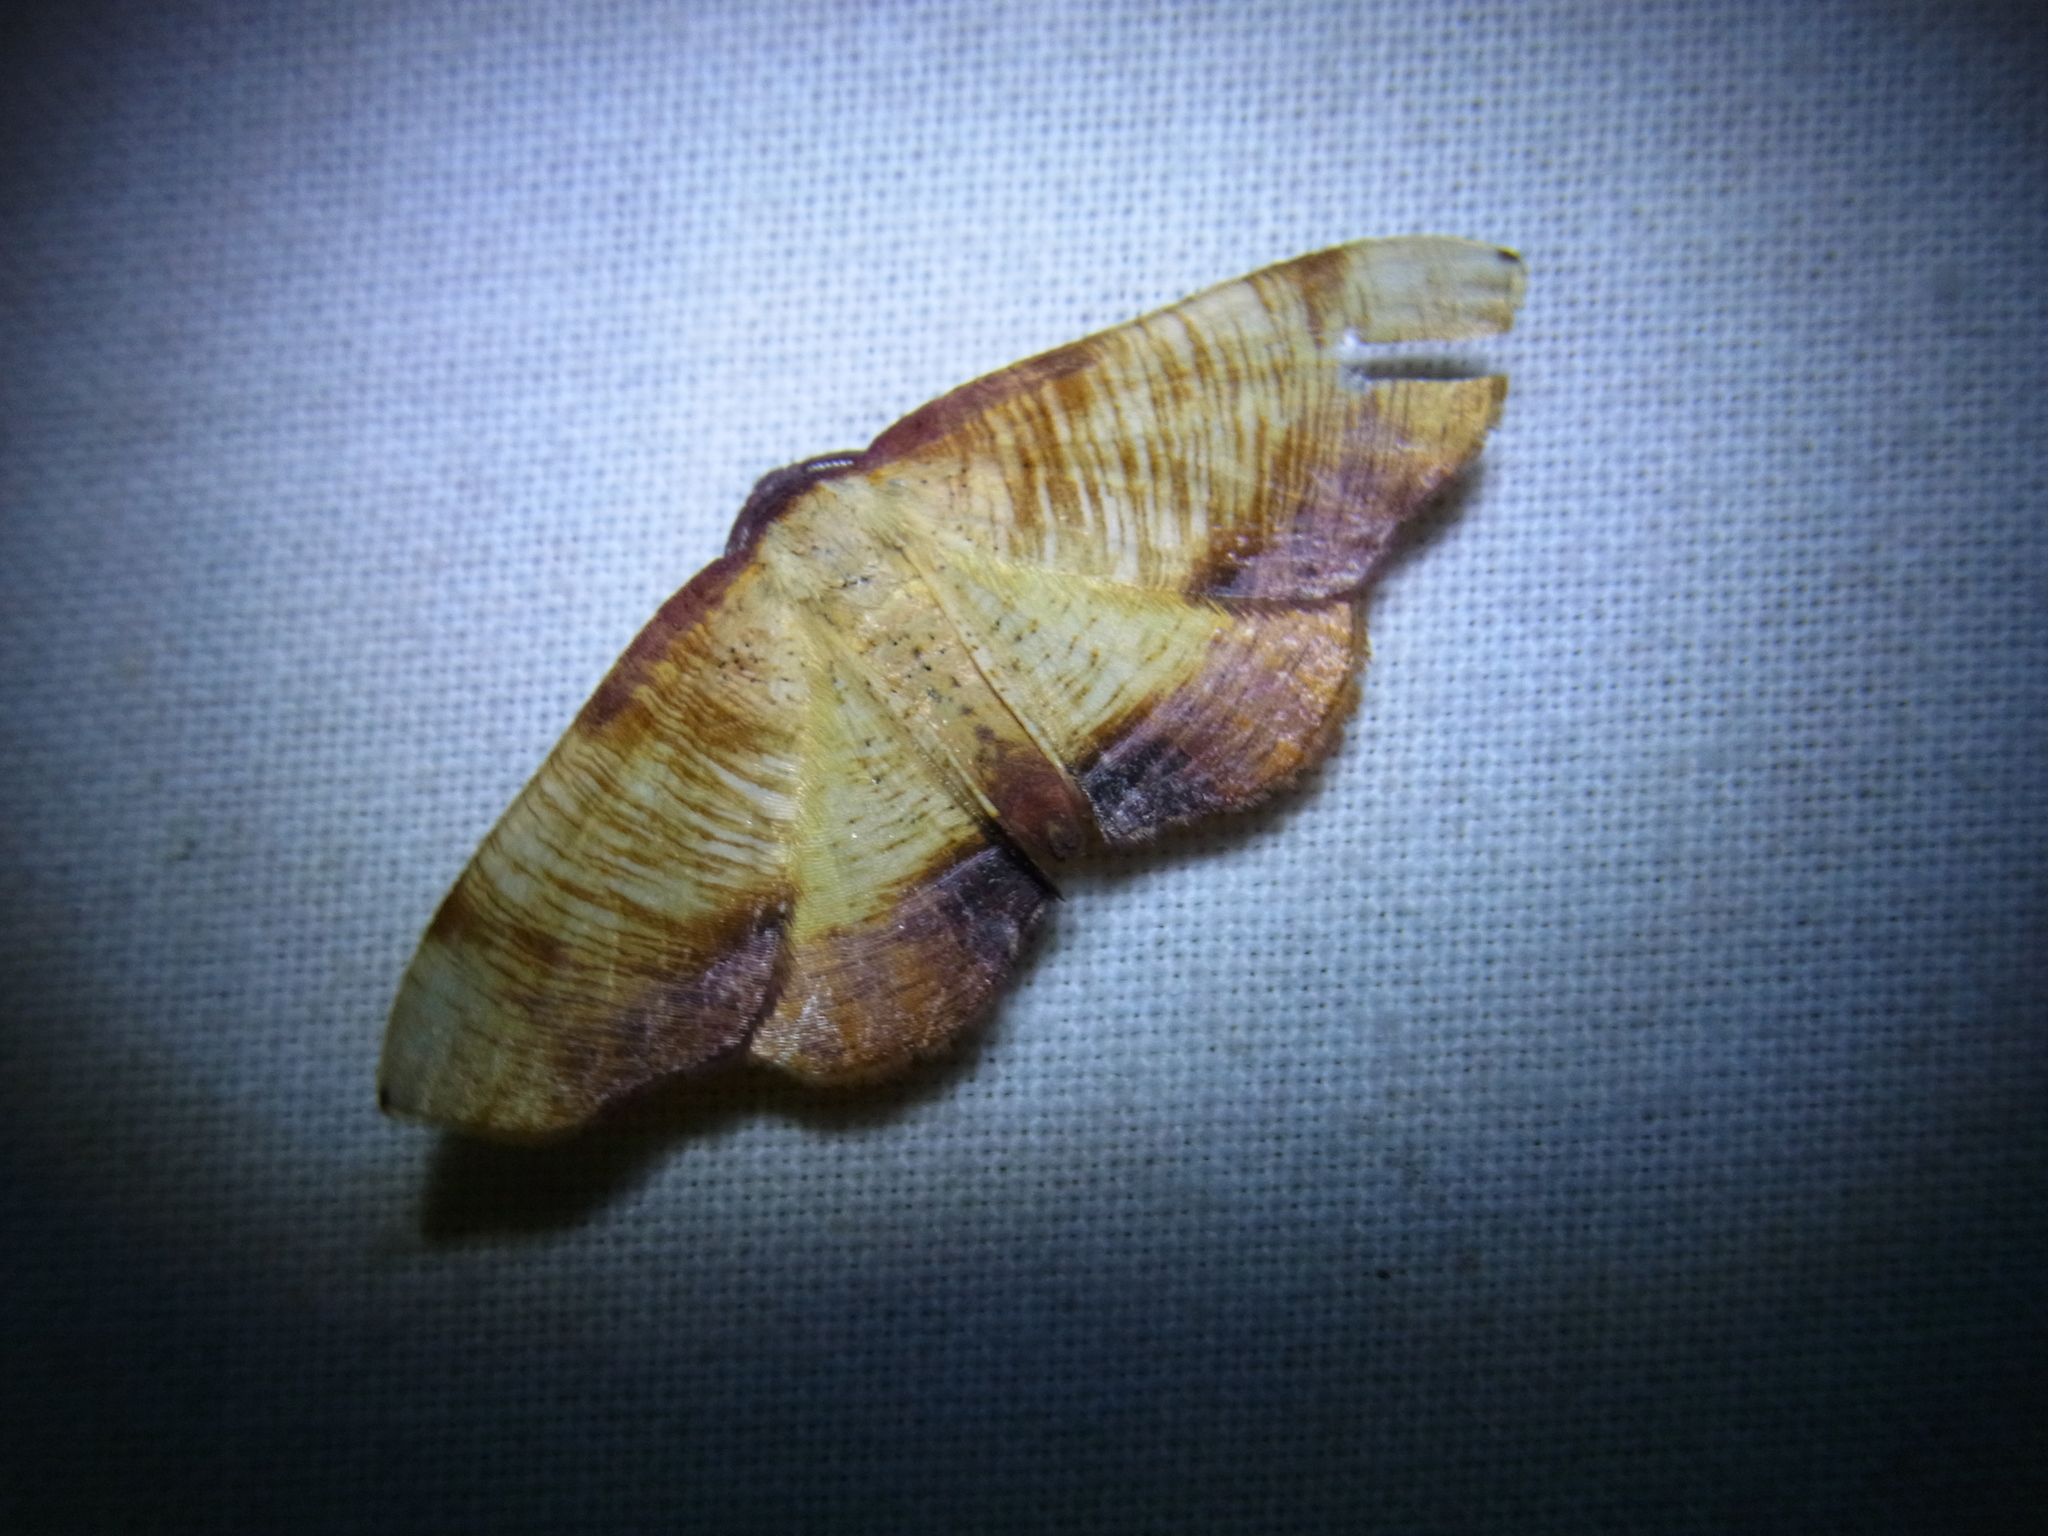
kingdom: Animalia
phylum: Arthropoda
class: Insecta
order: Lepidoptera
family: Geometridae
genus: Plagodis
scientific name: Plagodis dolabraria
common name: Scorched wing
